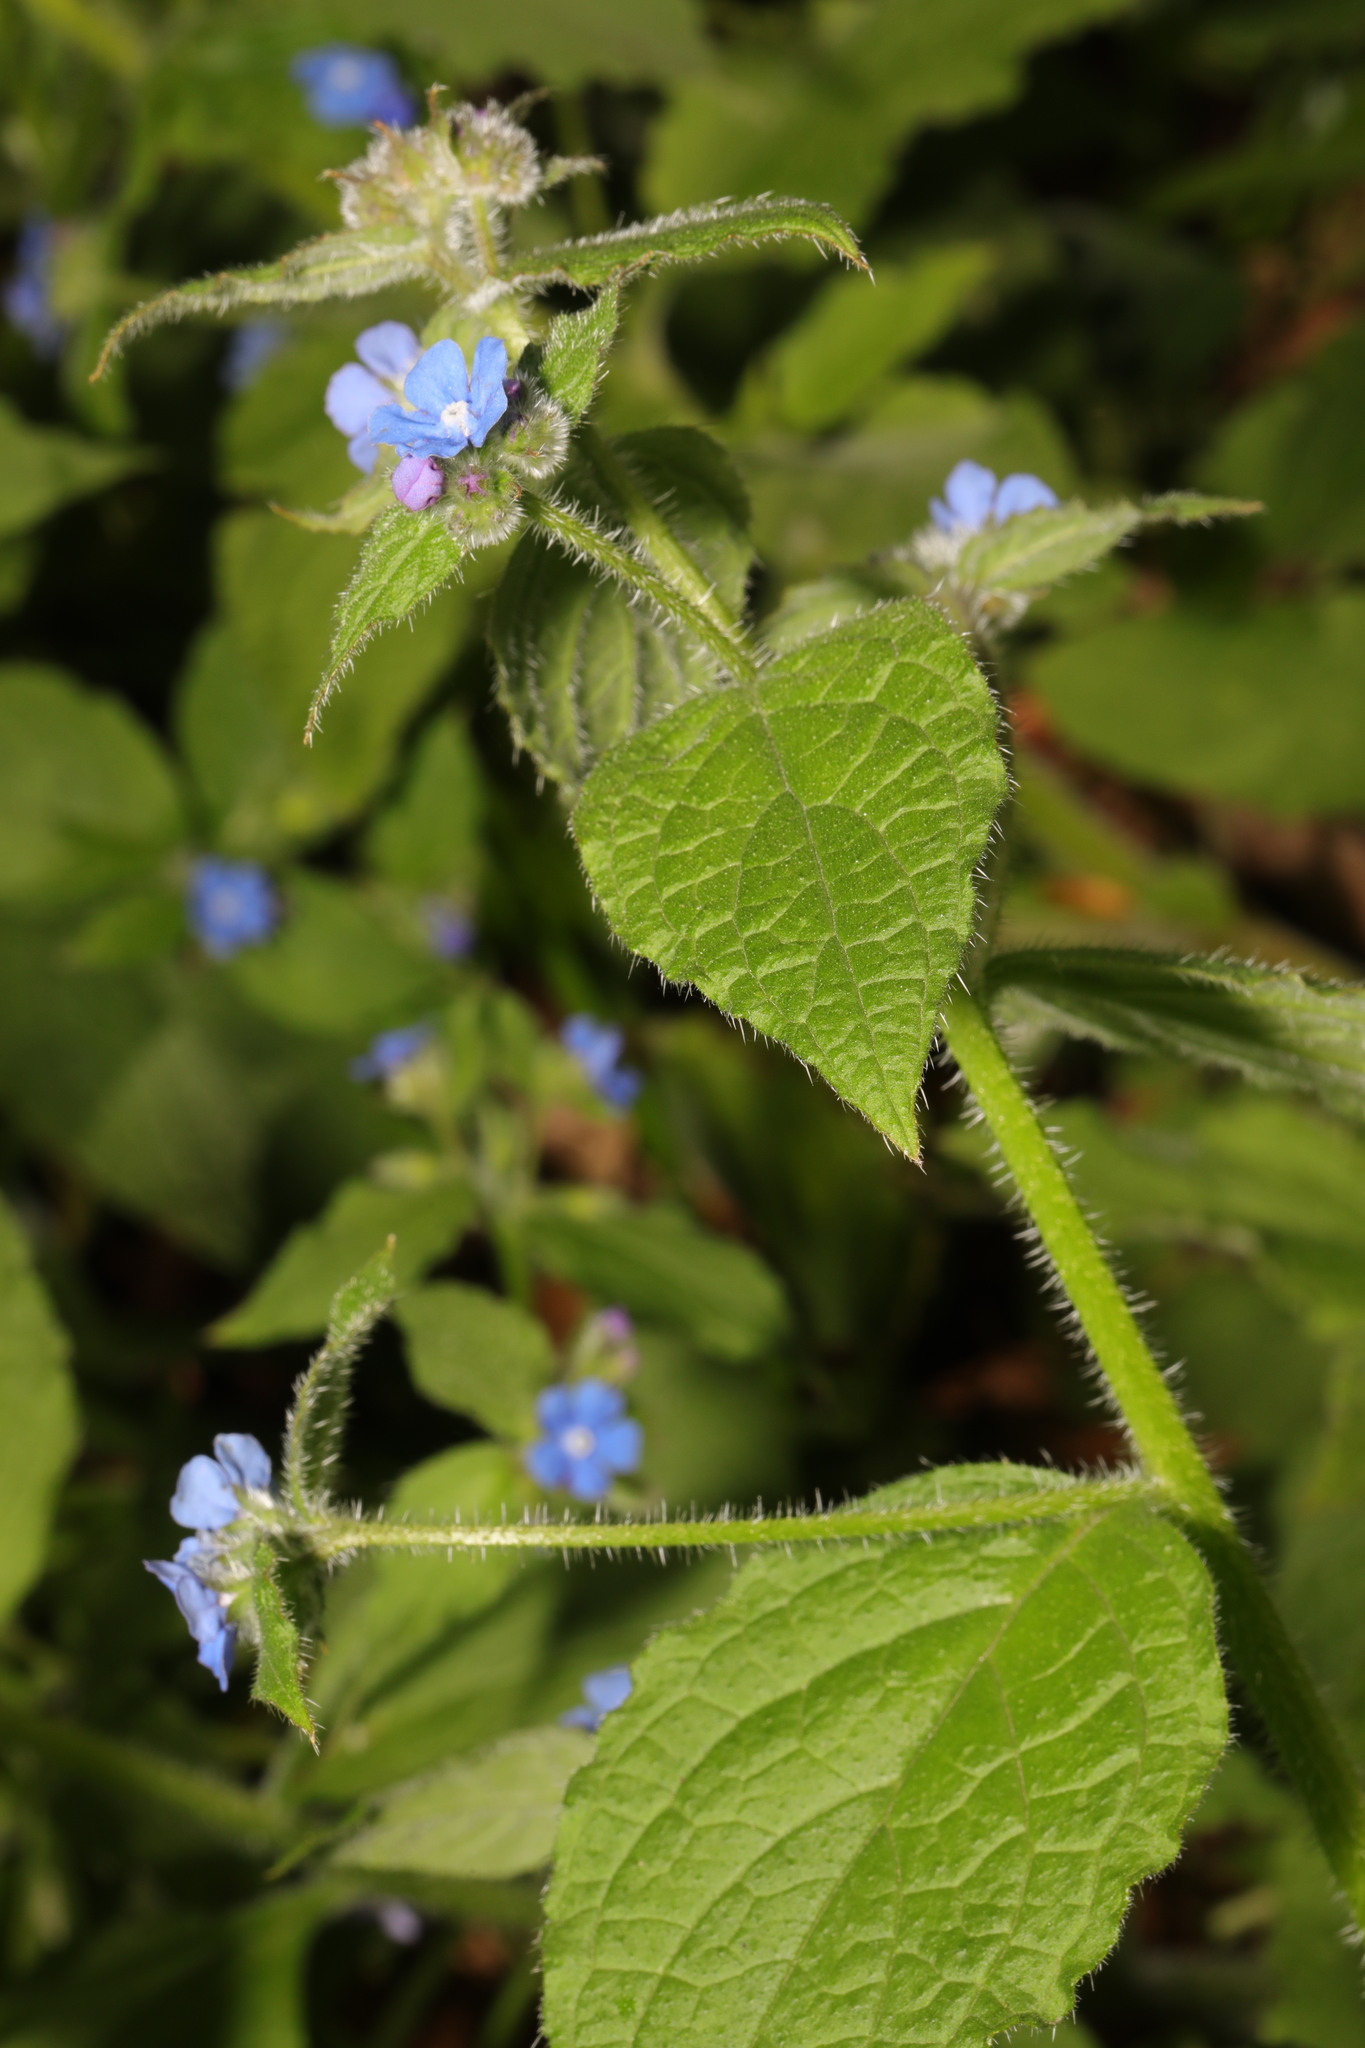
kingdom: Plantae
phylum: Tracheophyta
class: Magnoliopsida
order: Boraginales
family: Boraginaceae
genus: Pentaglottis
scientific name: Pentaglottis sempervirens
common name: Green alkanet
